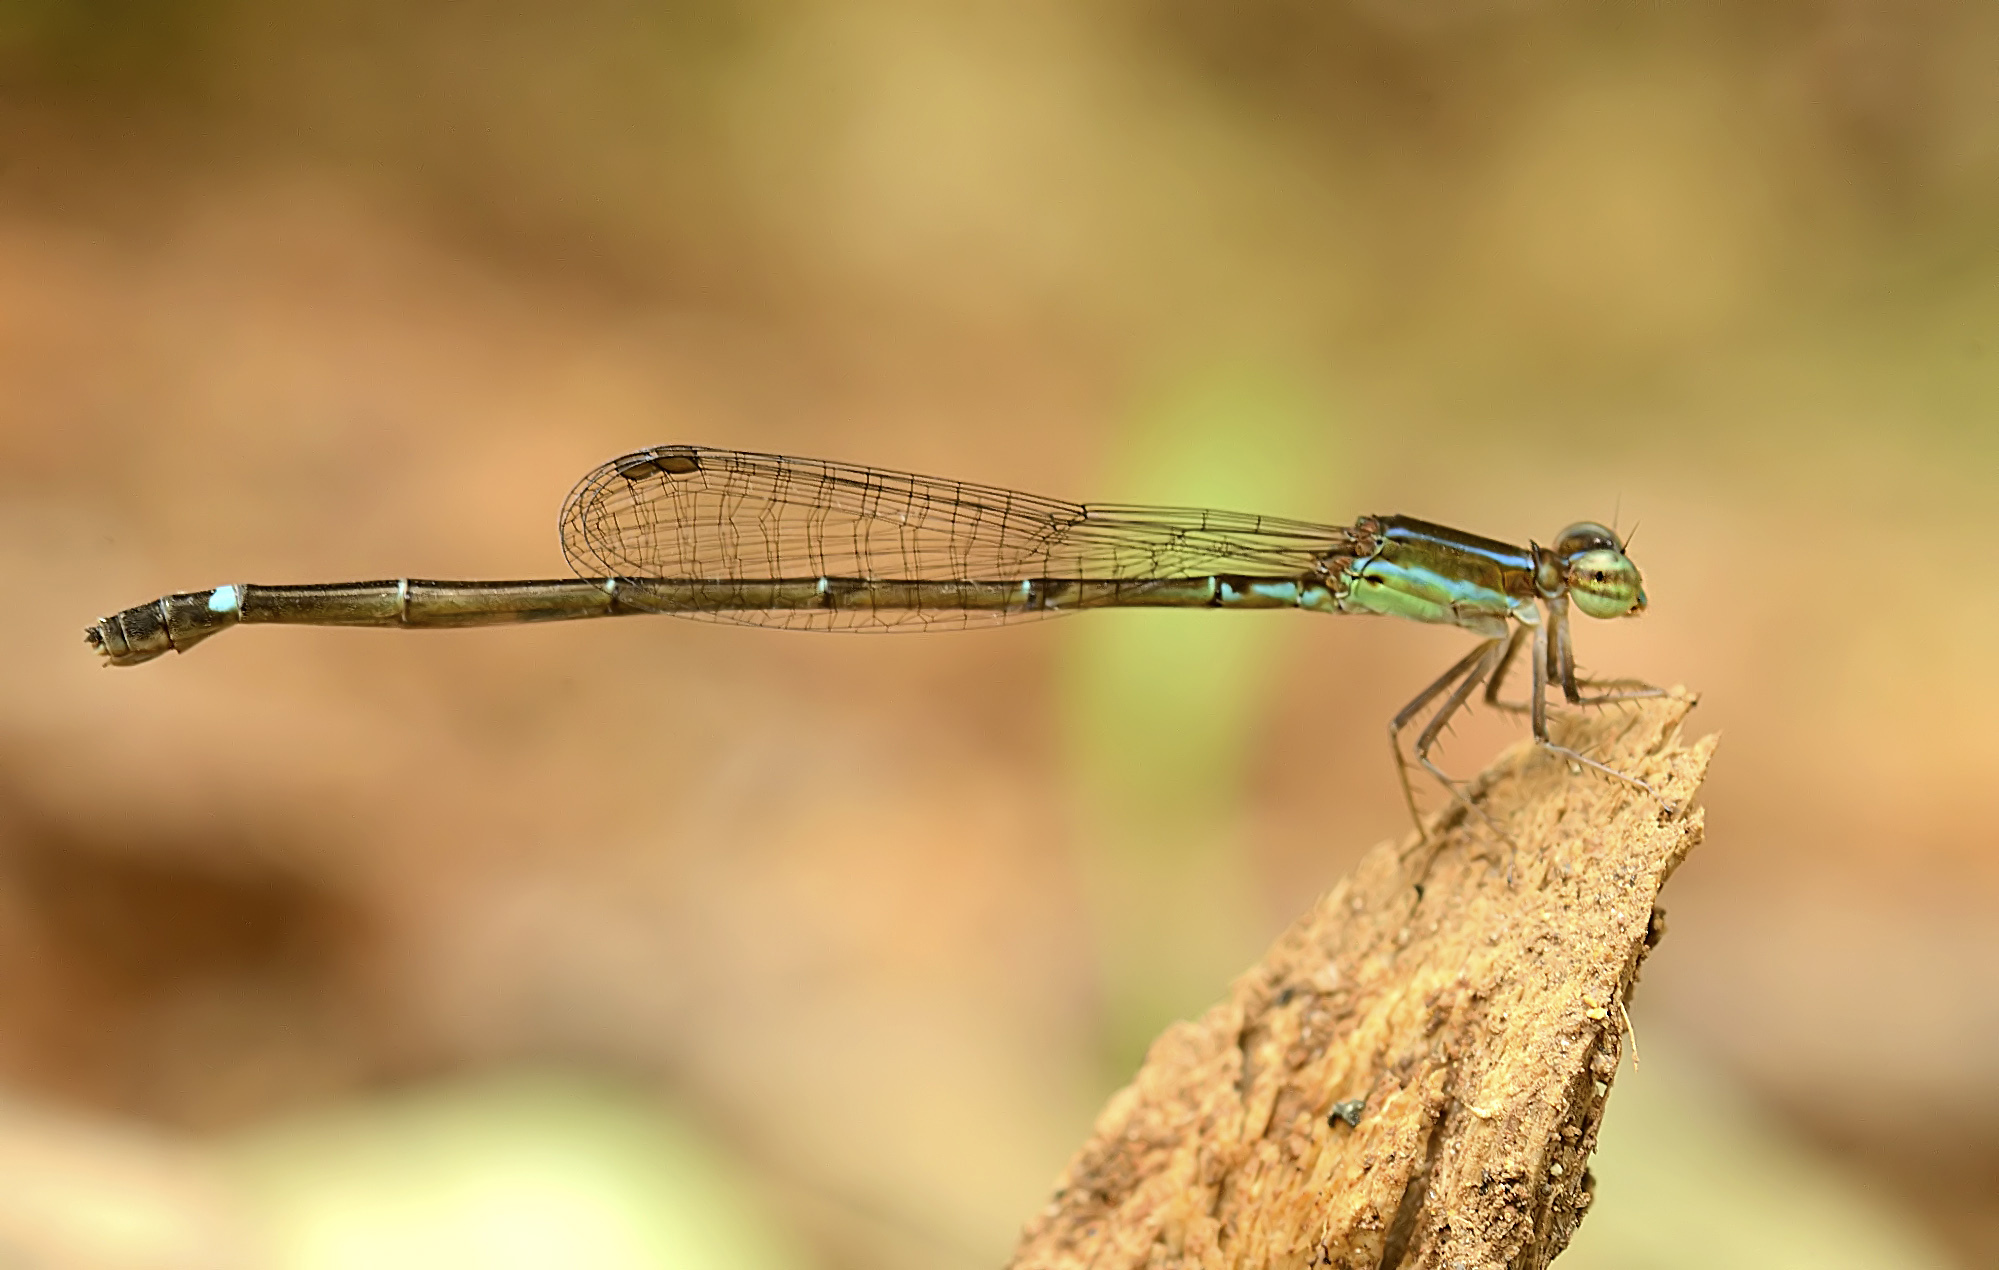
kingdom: Animalia
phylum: Arthropoda
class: Insecta
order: Odonata
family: Coenagrionidae
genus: Mortonagrion
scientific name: Mortonagrion varralli
